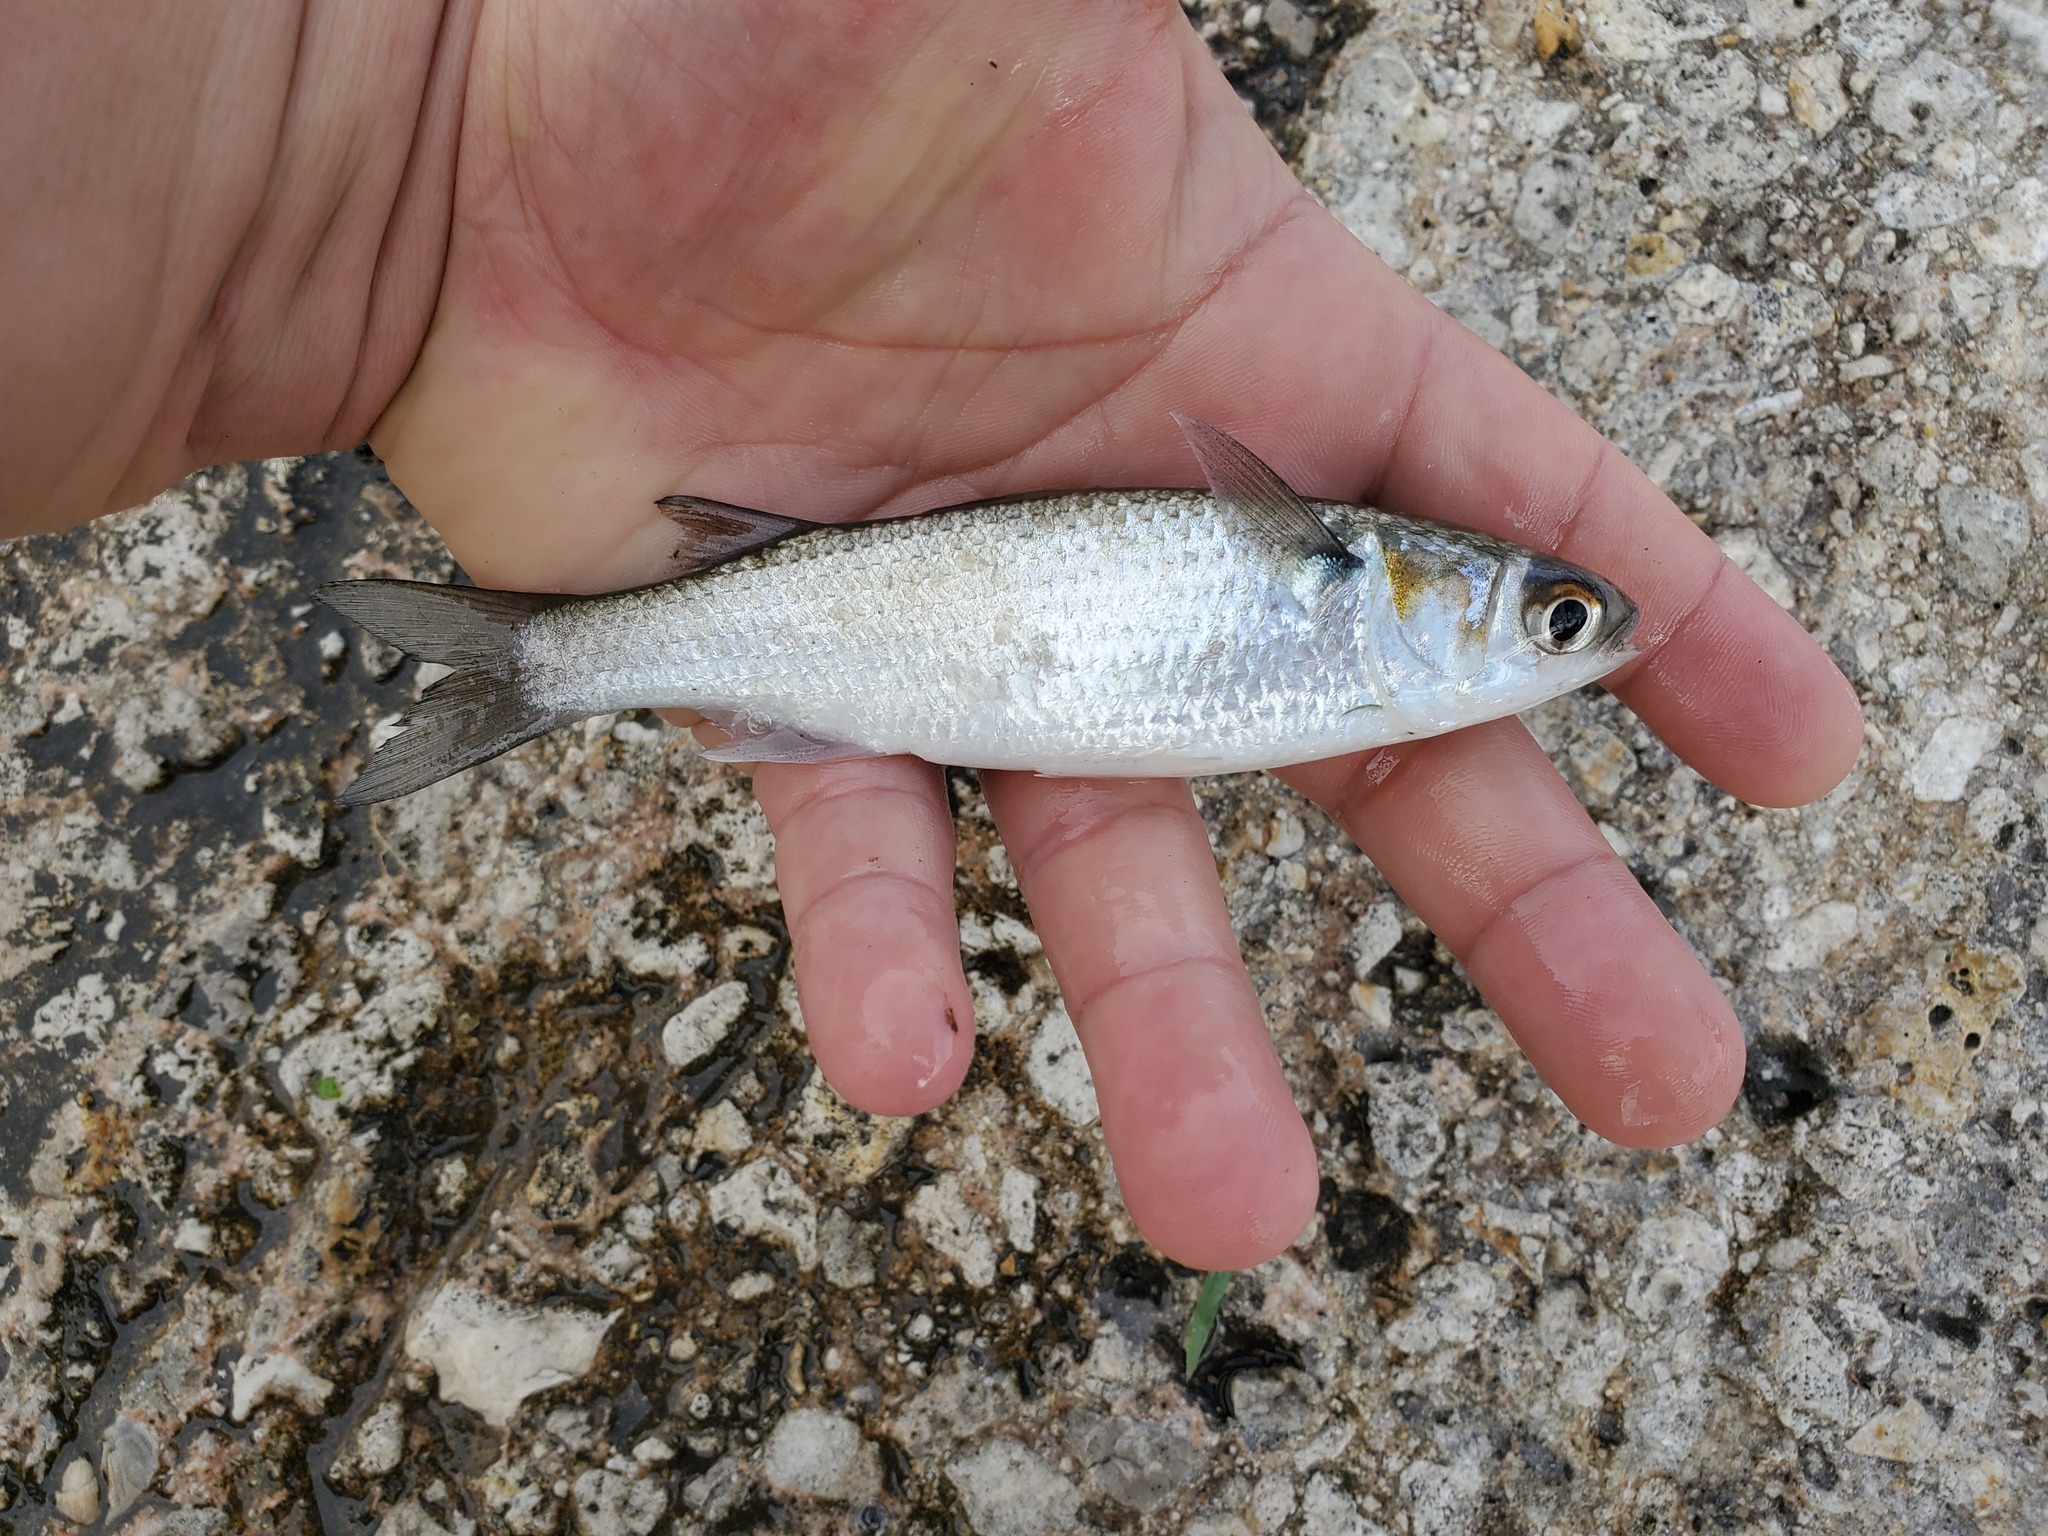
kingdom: Animalia
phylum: Chordata
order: Mugiliformes
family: Mugilidae
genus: Mugil
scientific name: Mugil curema
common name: White mullet
